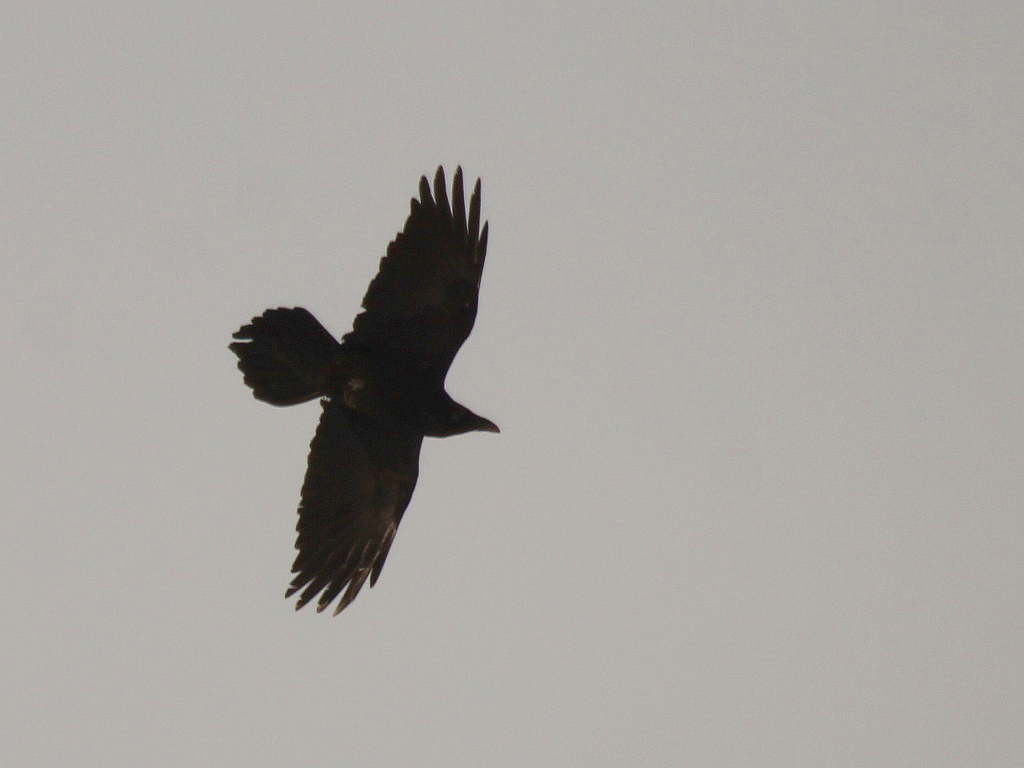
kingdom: Animalia
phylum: Chordata
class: Aves
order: Passeriformes
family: Corvidae
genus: Corvus
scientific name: Corvus corax
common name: Common raven
